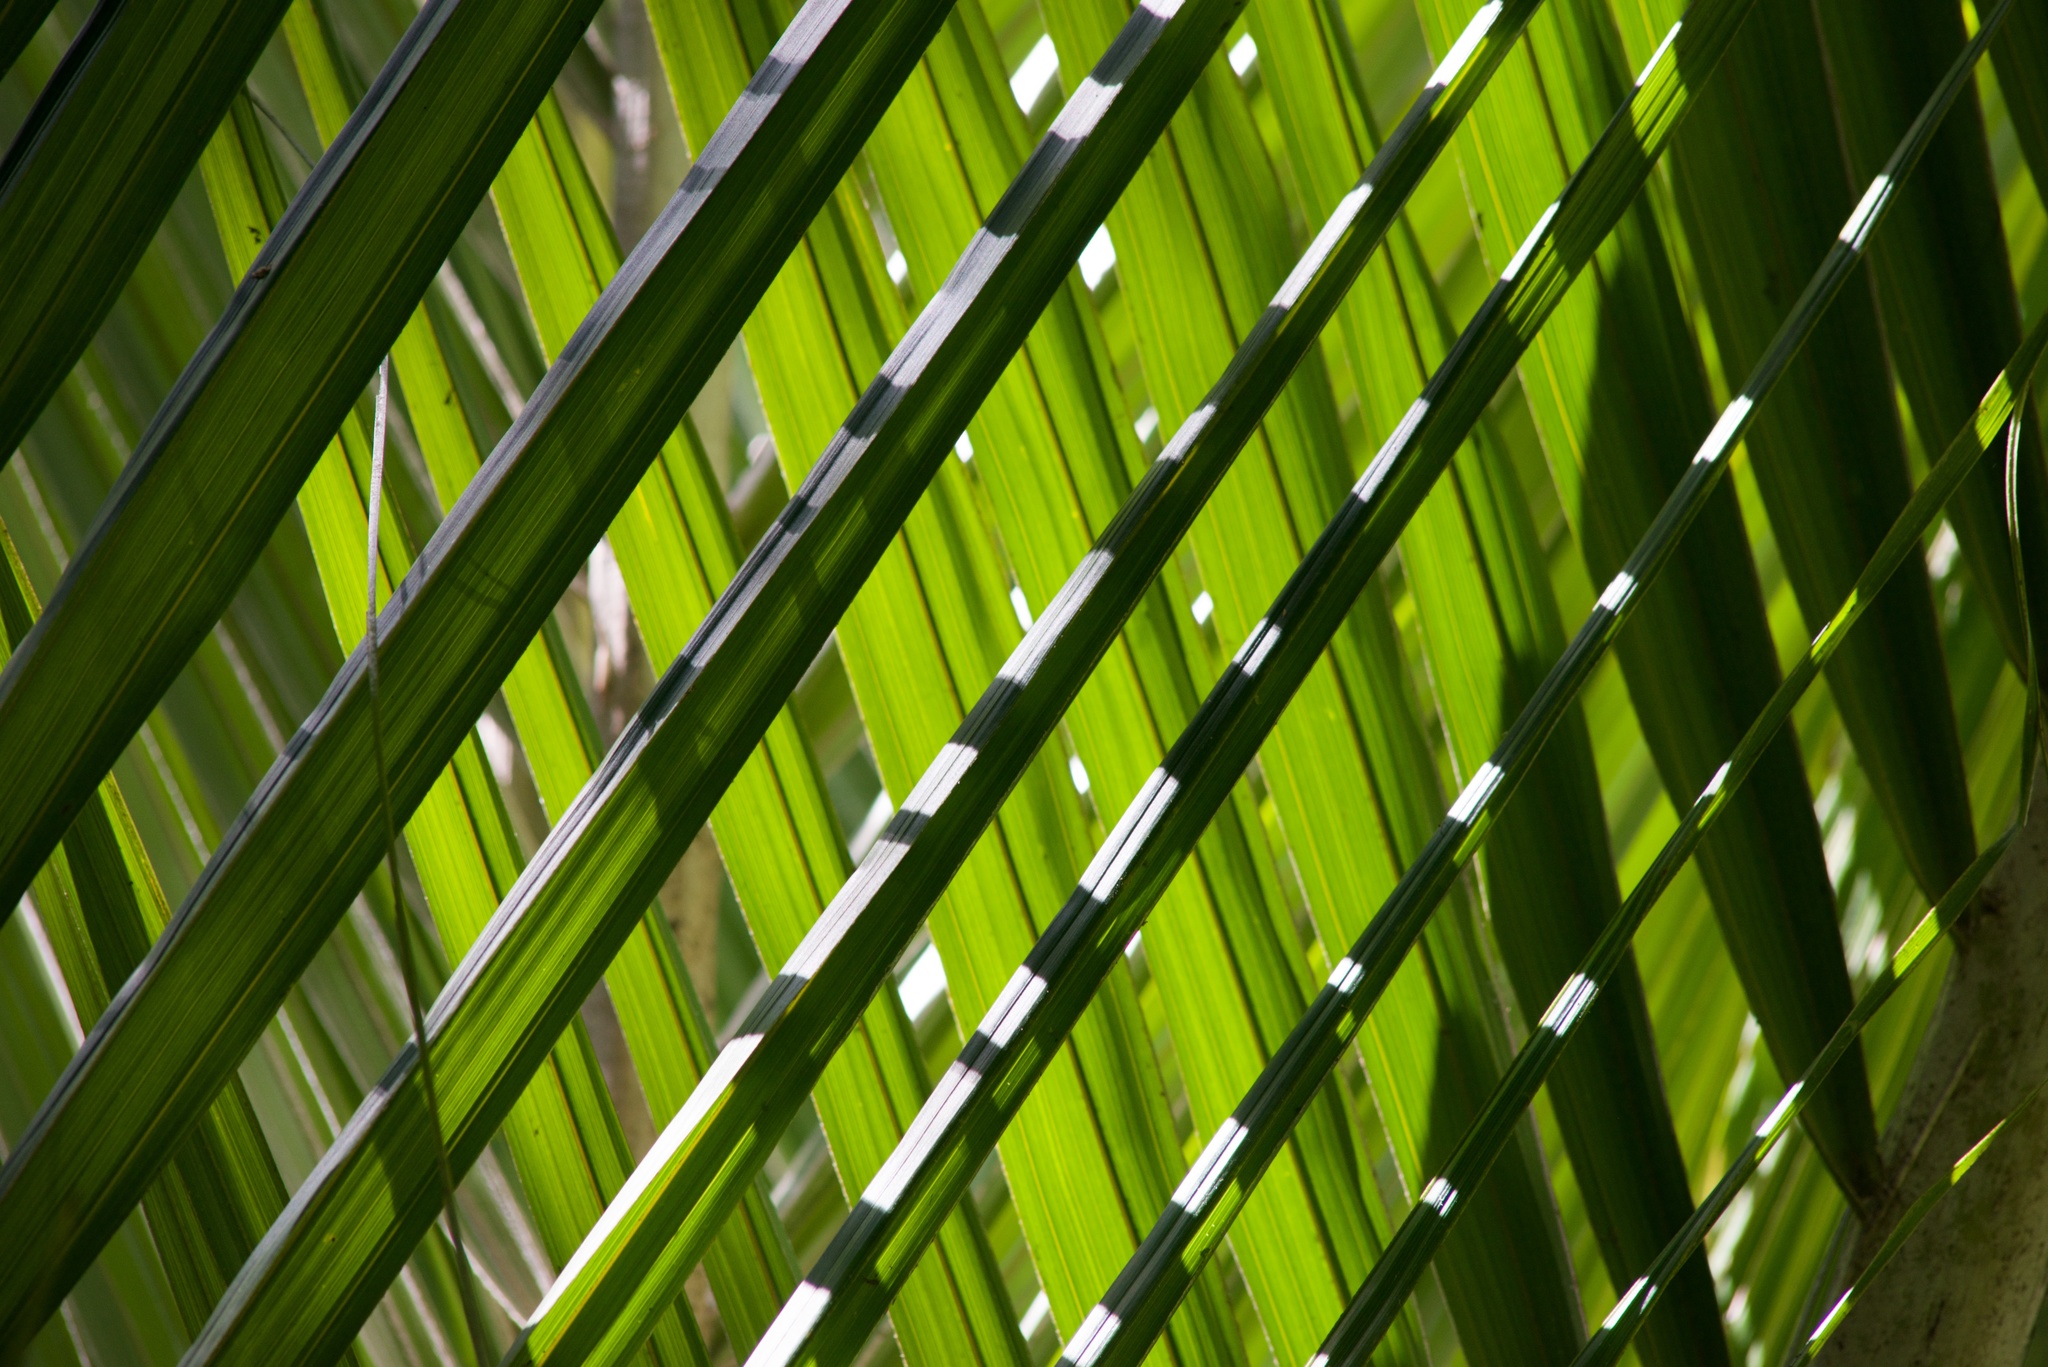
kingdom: Plantae
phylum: Tracheophyta
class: Liliopsida
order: Arecales
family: Arecaceae
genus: Rhopalostylis
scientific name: Rhopalostylis sapida
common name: Feather-duster palm
